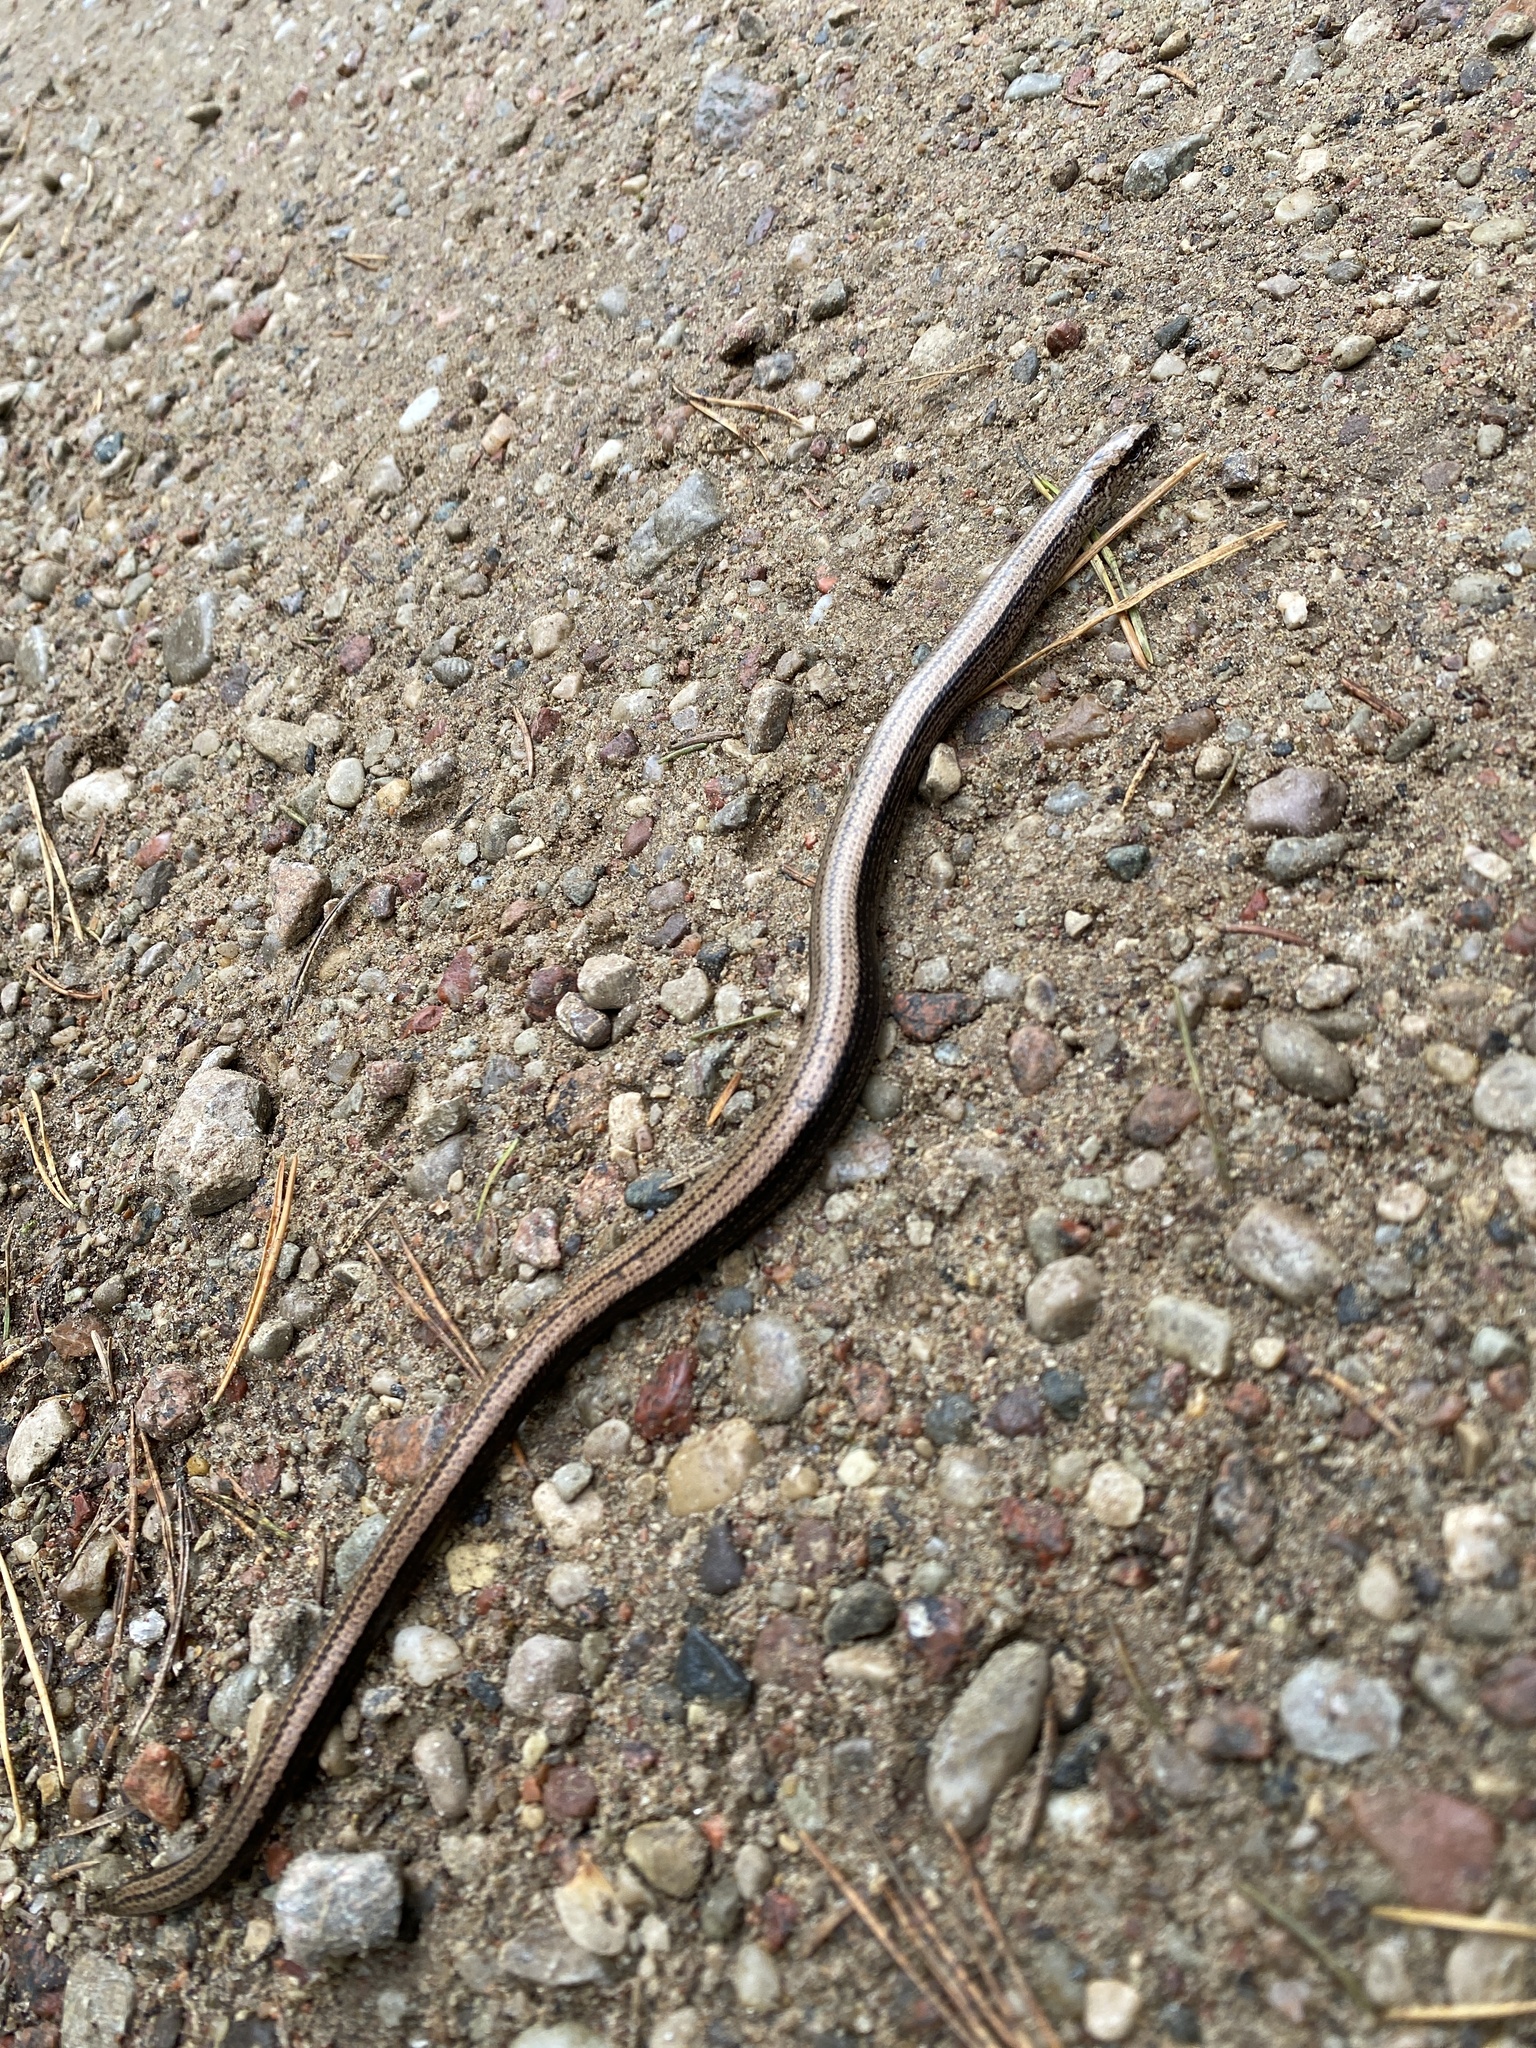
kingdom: Animalia
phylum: Chordata
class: Squamata
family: Anguidae
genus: Anguis
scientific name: Anguis fragilis
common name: Slow worm
